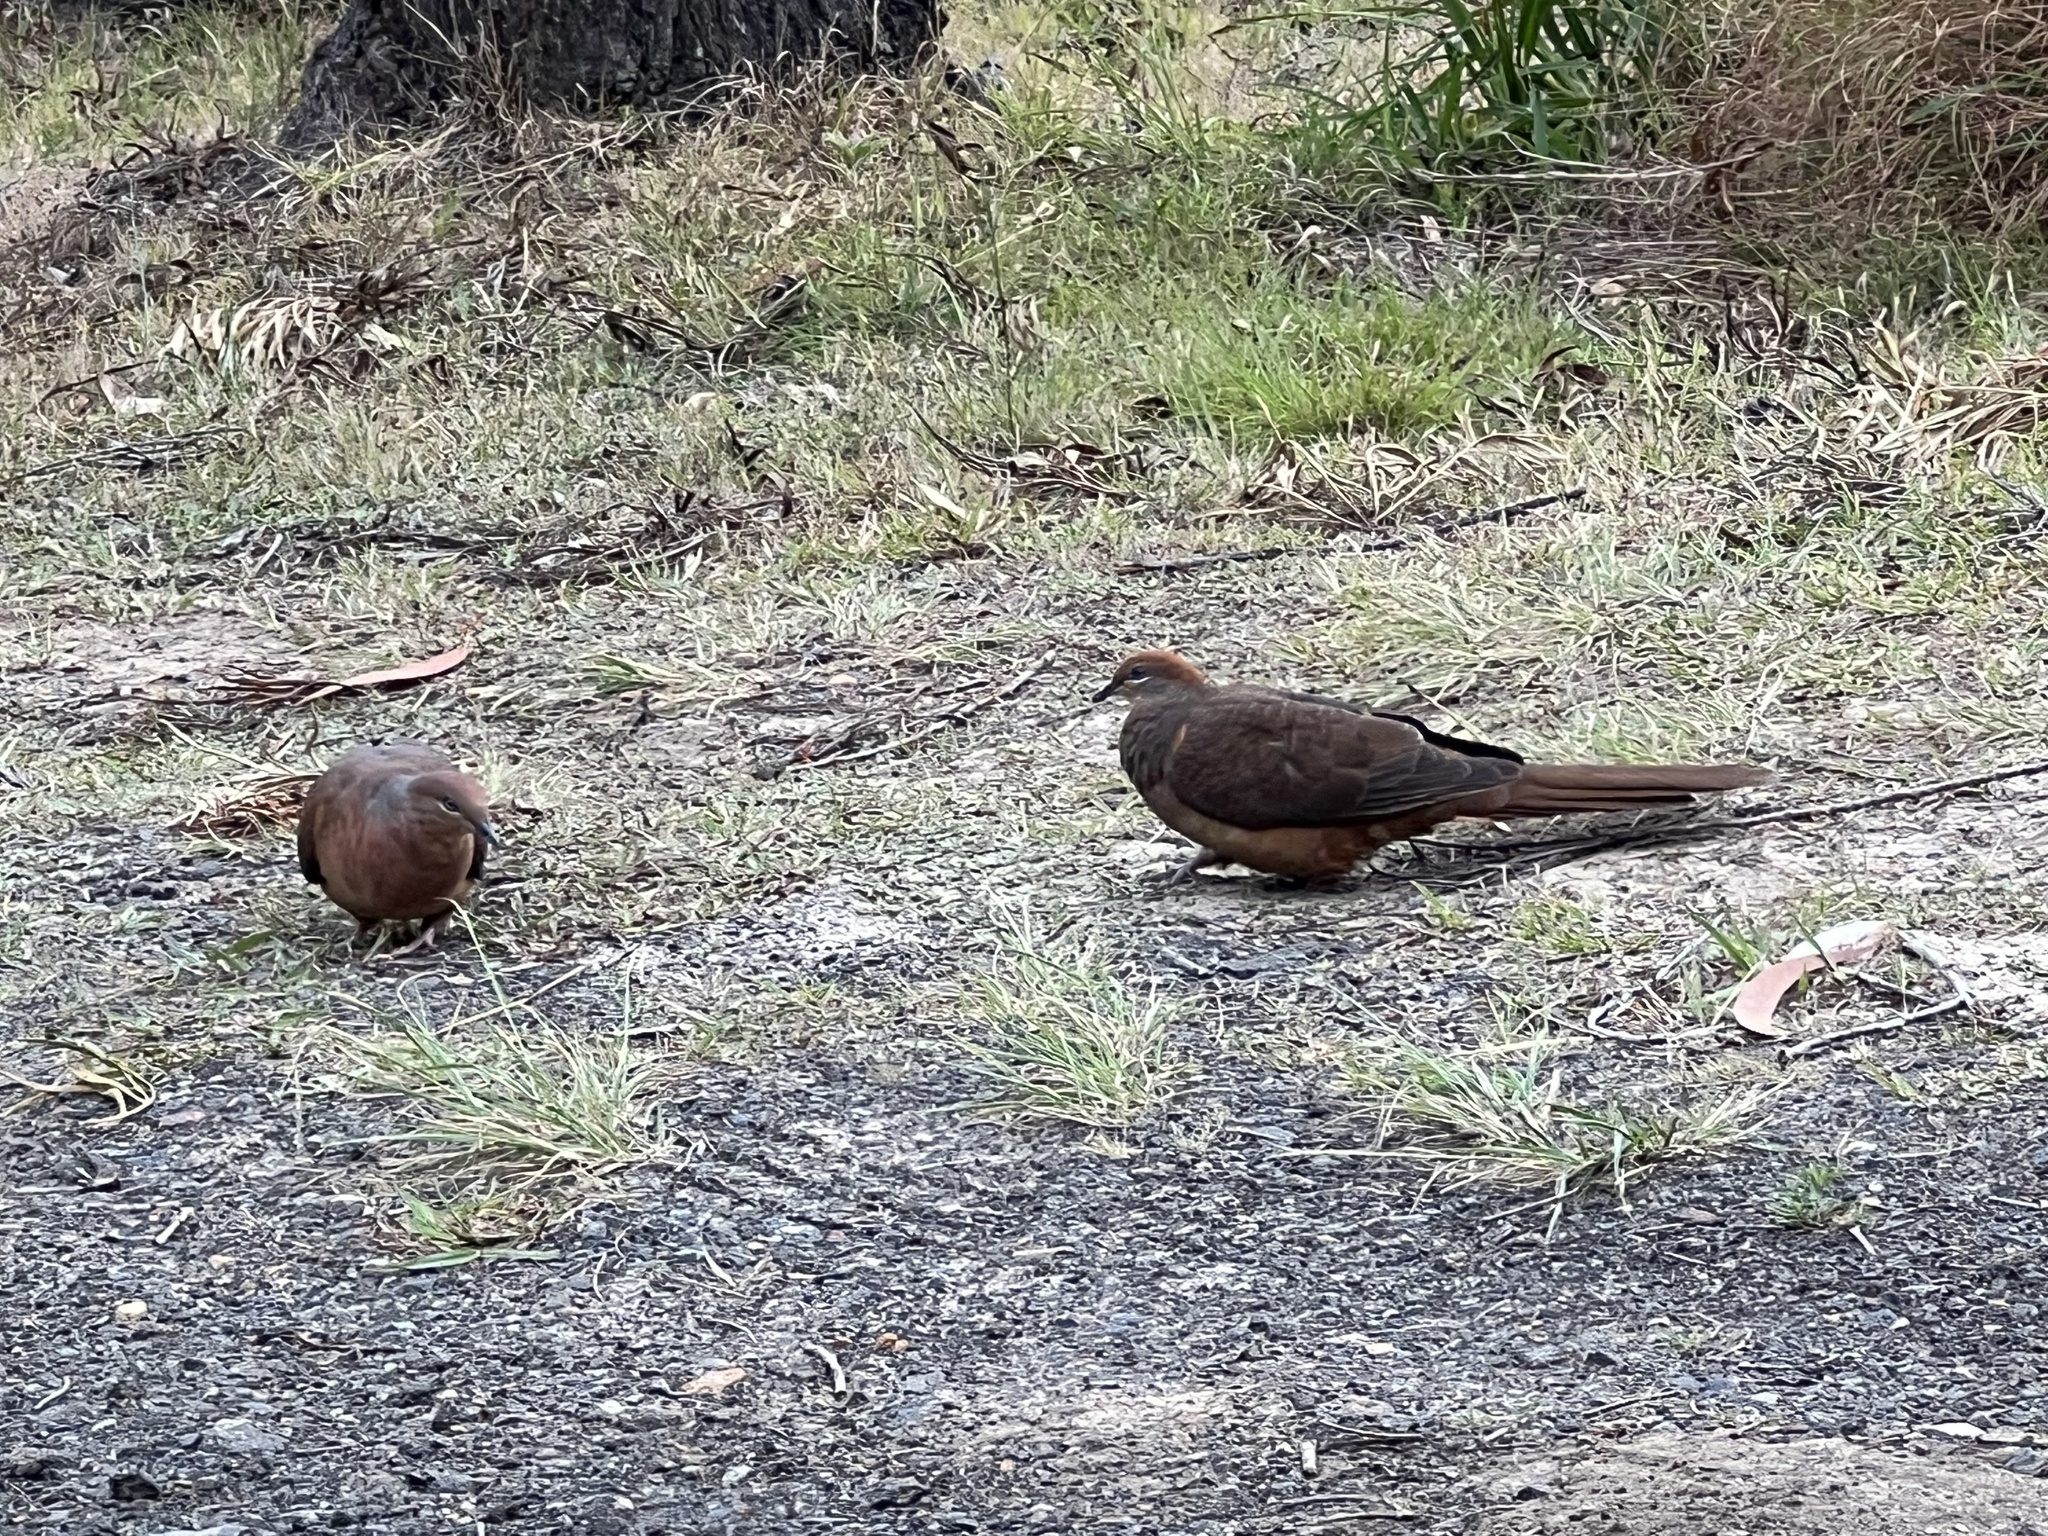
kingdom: Animalia
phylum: Chordata
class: Aves
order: Columbiformes
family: Columbidae
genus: Macropygia
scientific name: Macropygia phasianella
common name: Brown cuckoo-dove
